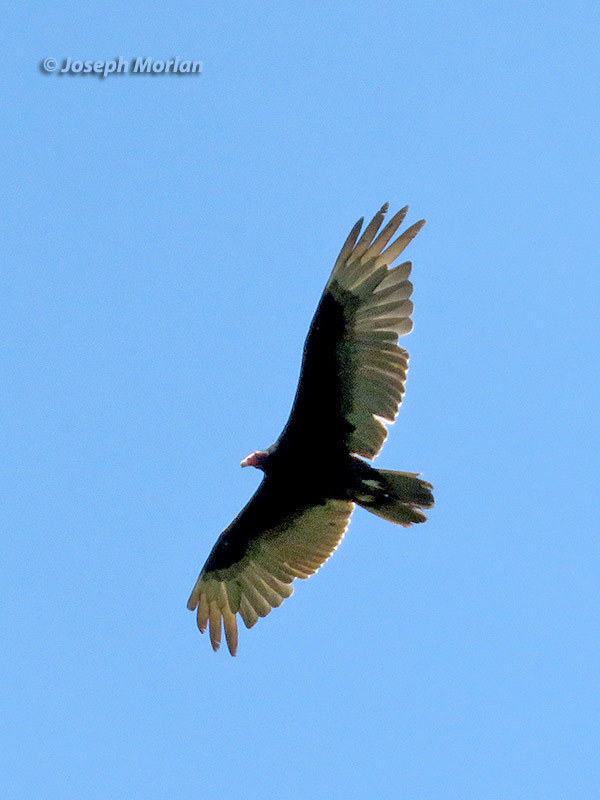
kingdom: Animalia
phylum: Chordata
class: Aves
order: Accipitriformes
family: Cathartidae
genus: Cathartes
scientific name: Cathartes aura
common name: Turkey vulture
